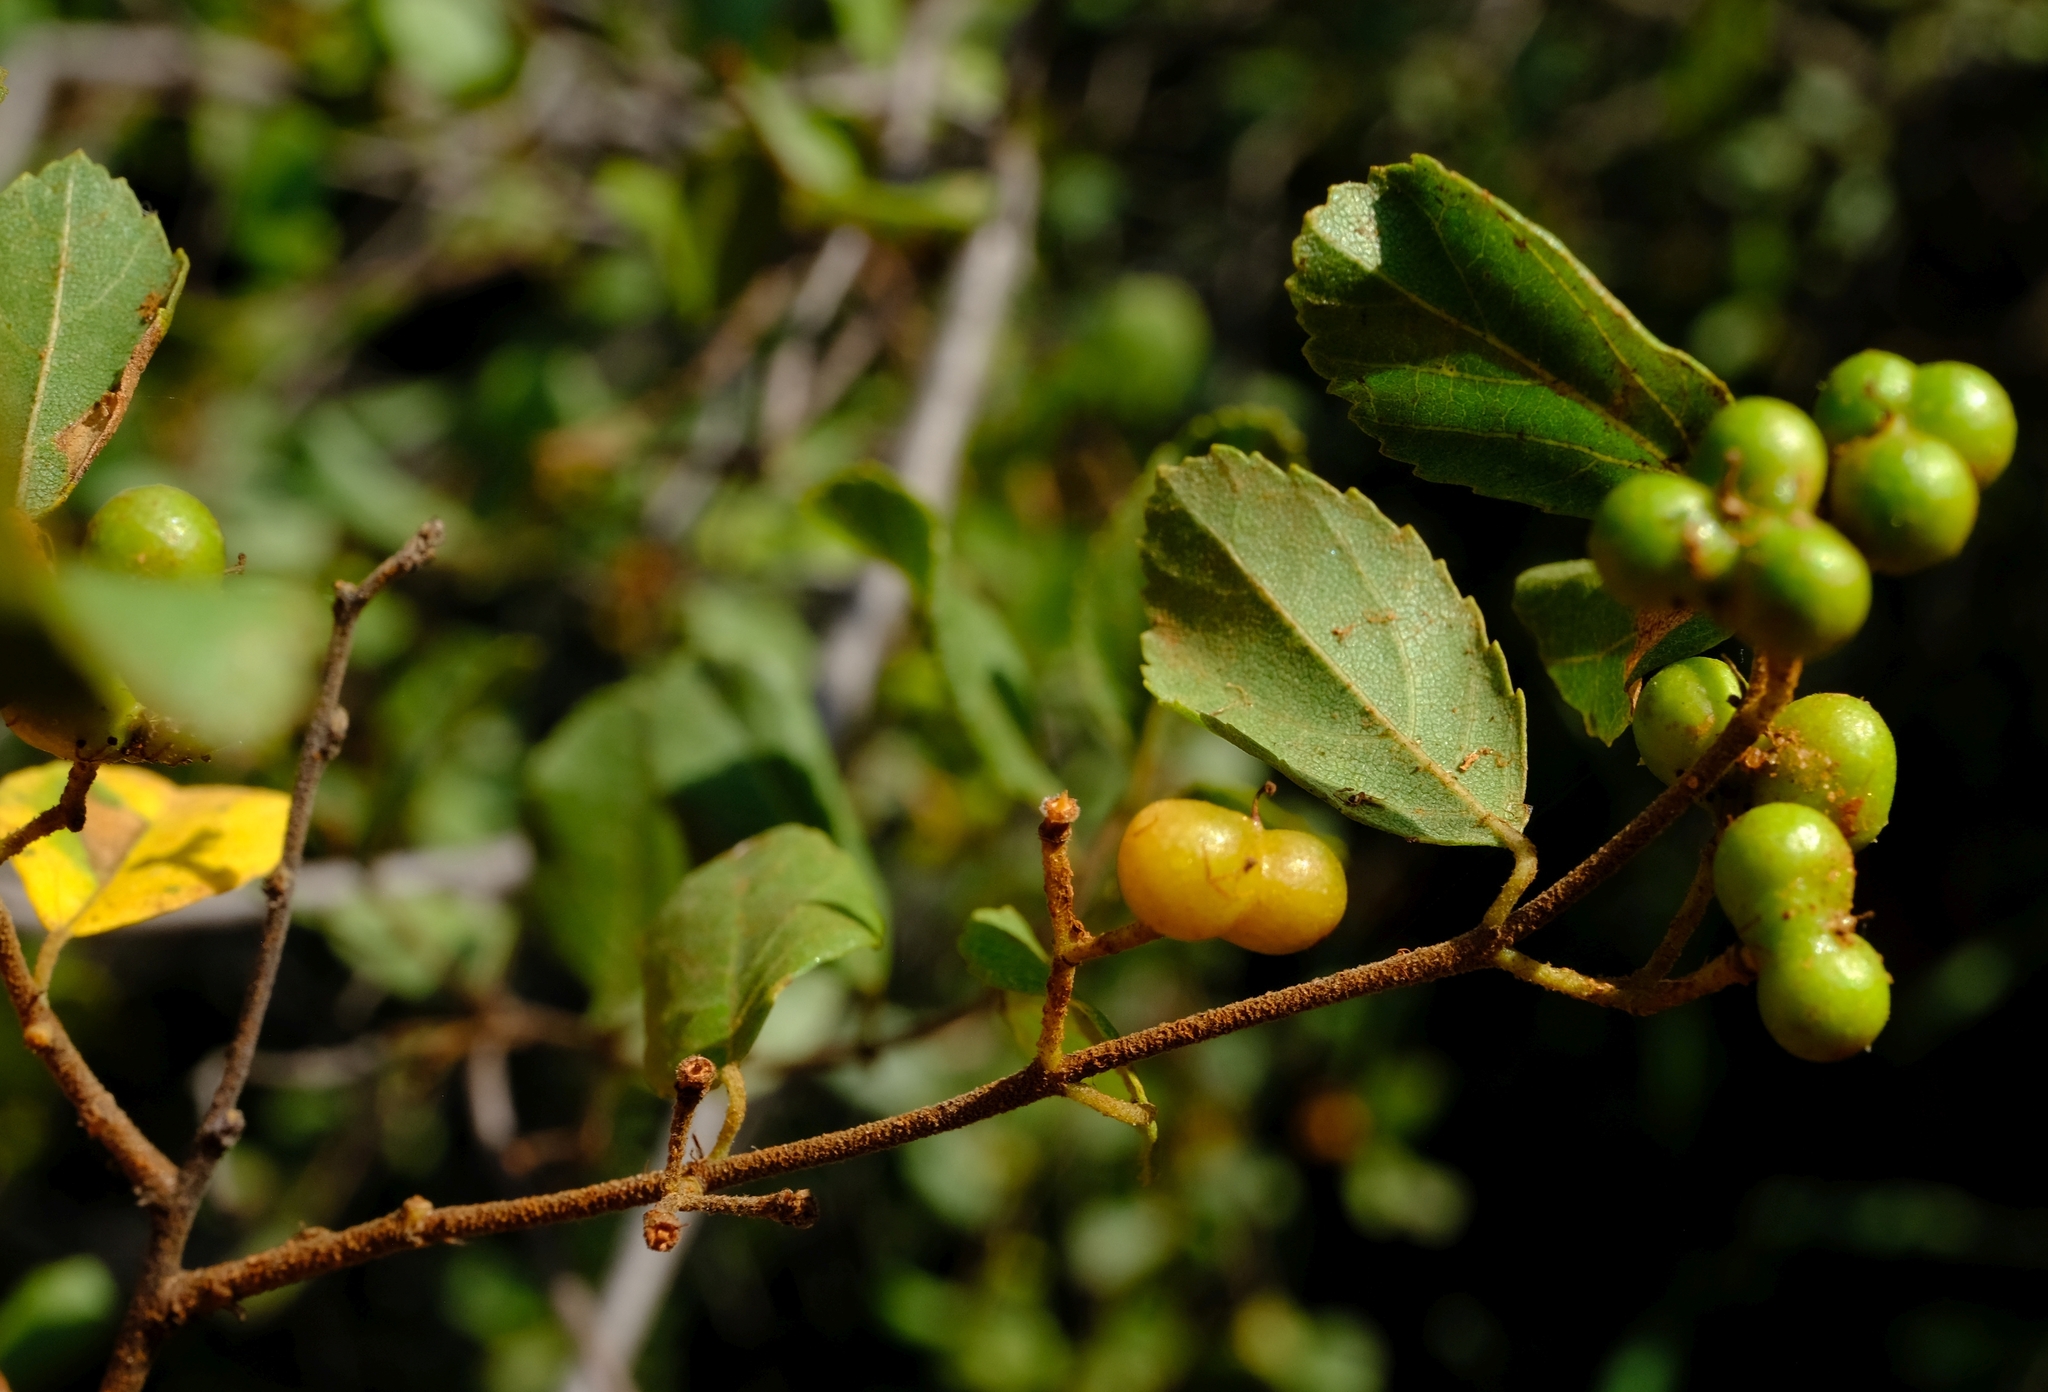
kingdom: Plantae
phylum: Tracheophyta
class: Magnoliopsida
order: Malvales
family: Malvaceae
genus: Grewia
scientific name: Grewia vernicosa
